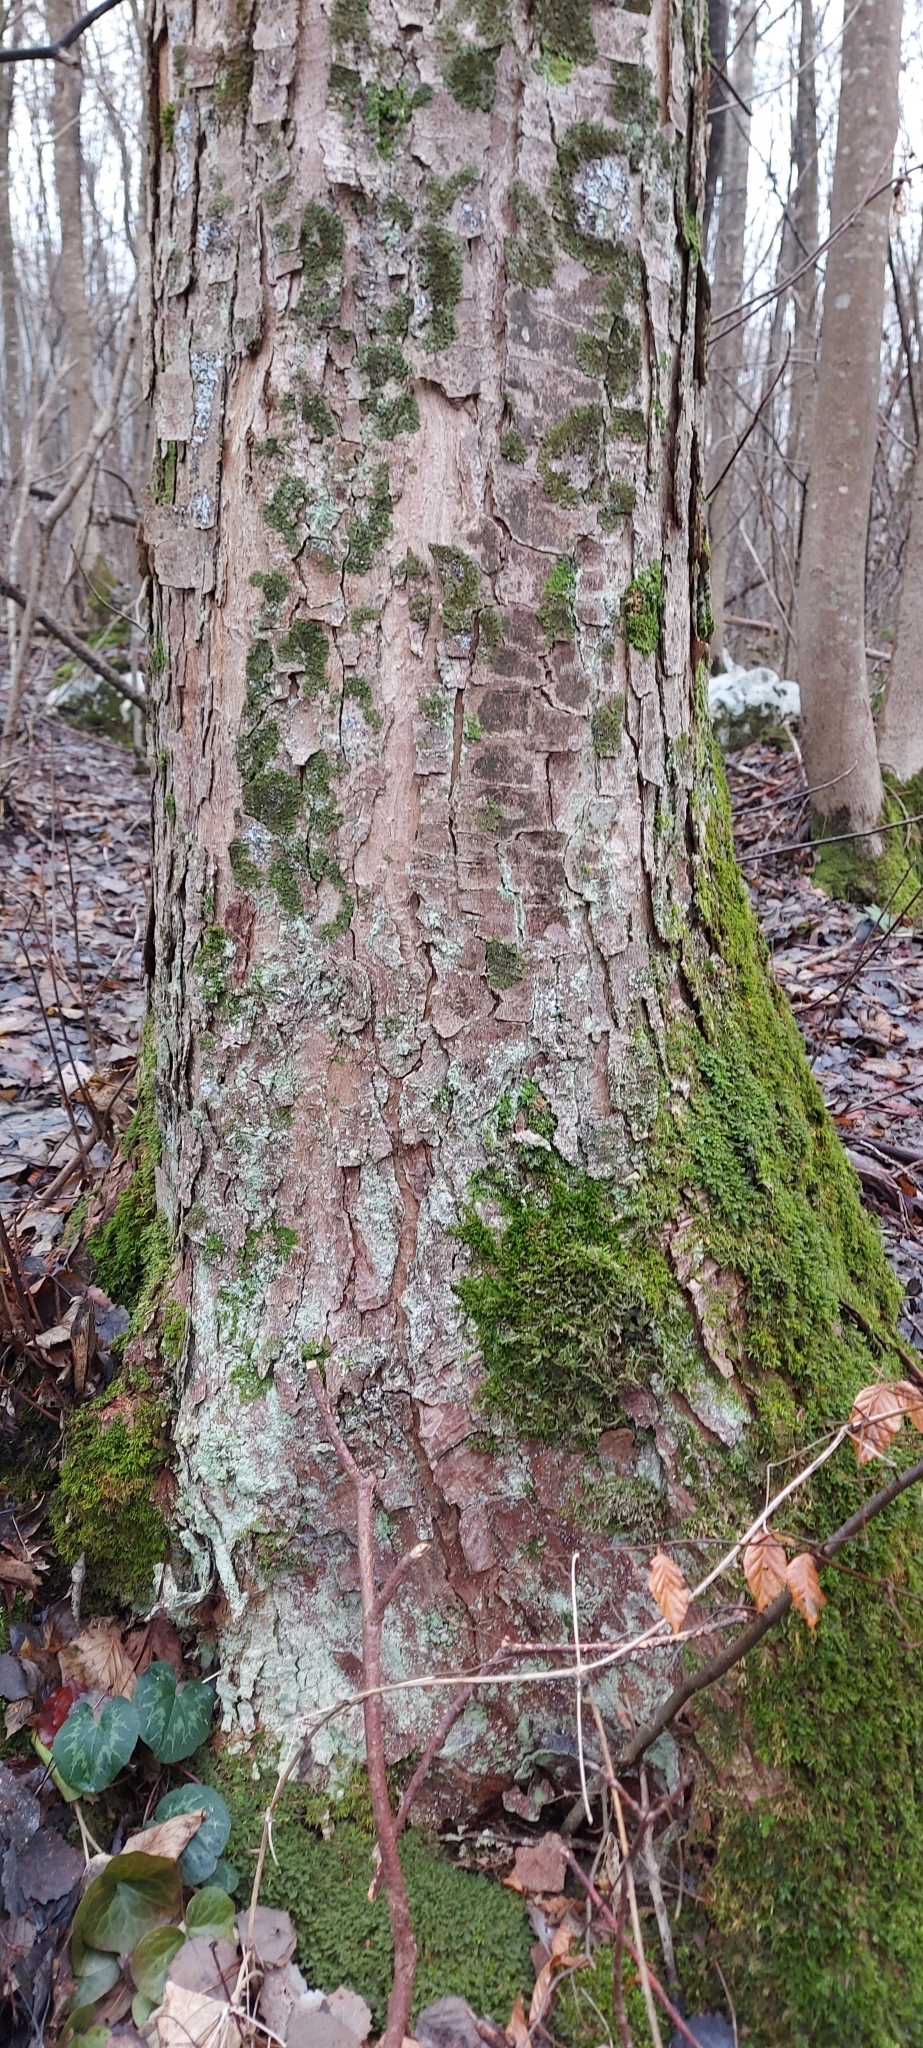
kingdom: Plantae
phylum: Tracheophyta
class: Magnoliopsida
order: Sapindales
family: Sapindaceae
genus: Acer
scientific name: Acer pseudoplatanus
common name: Sycamore
